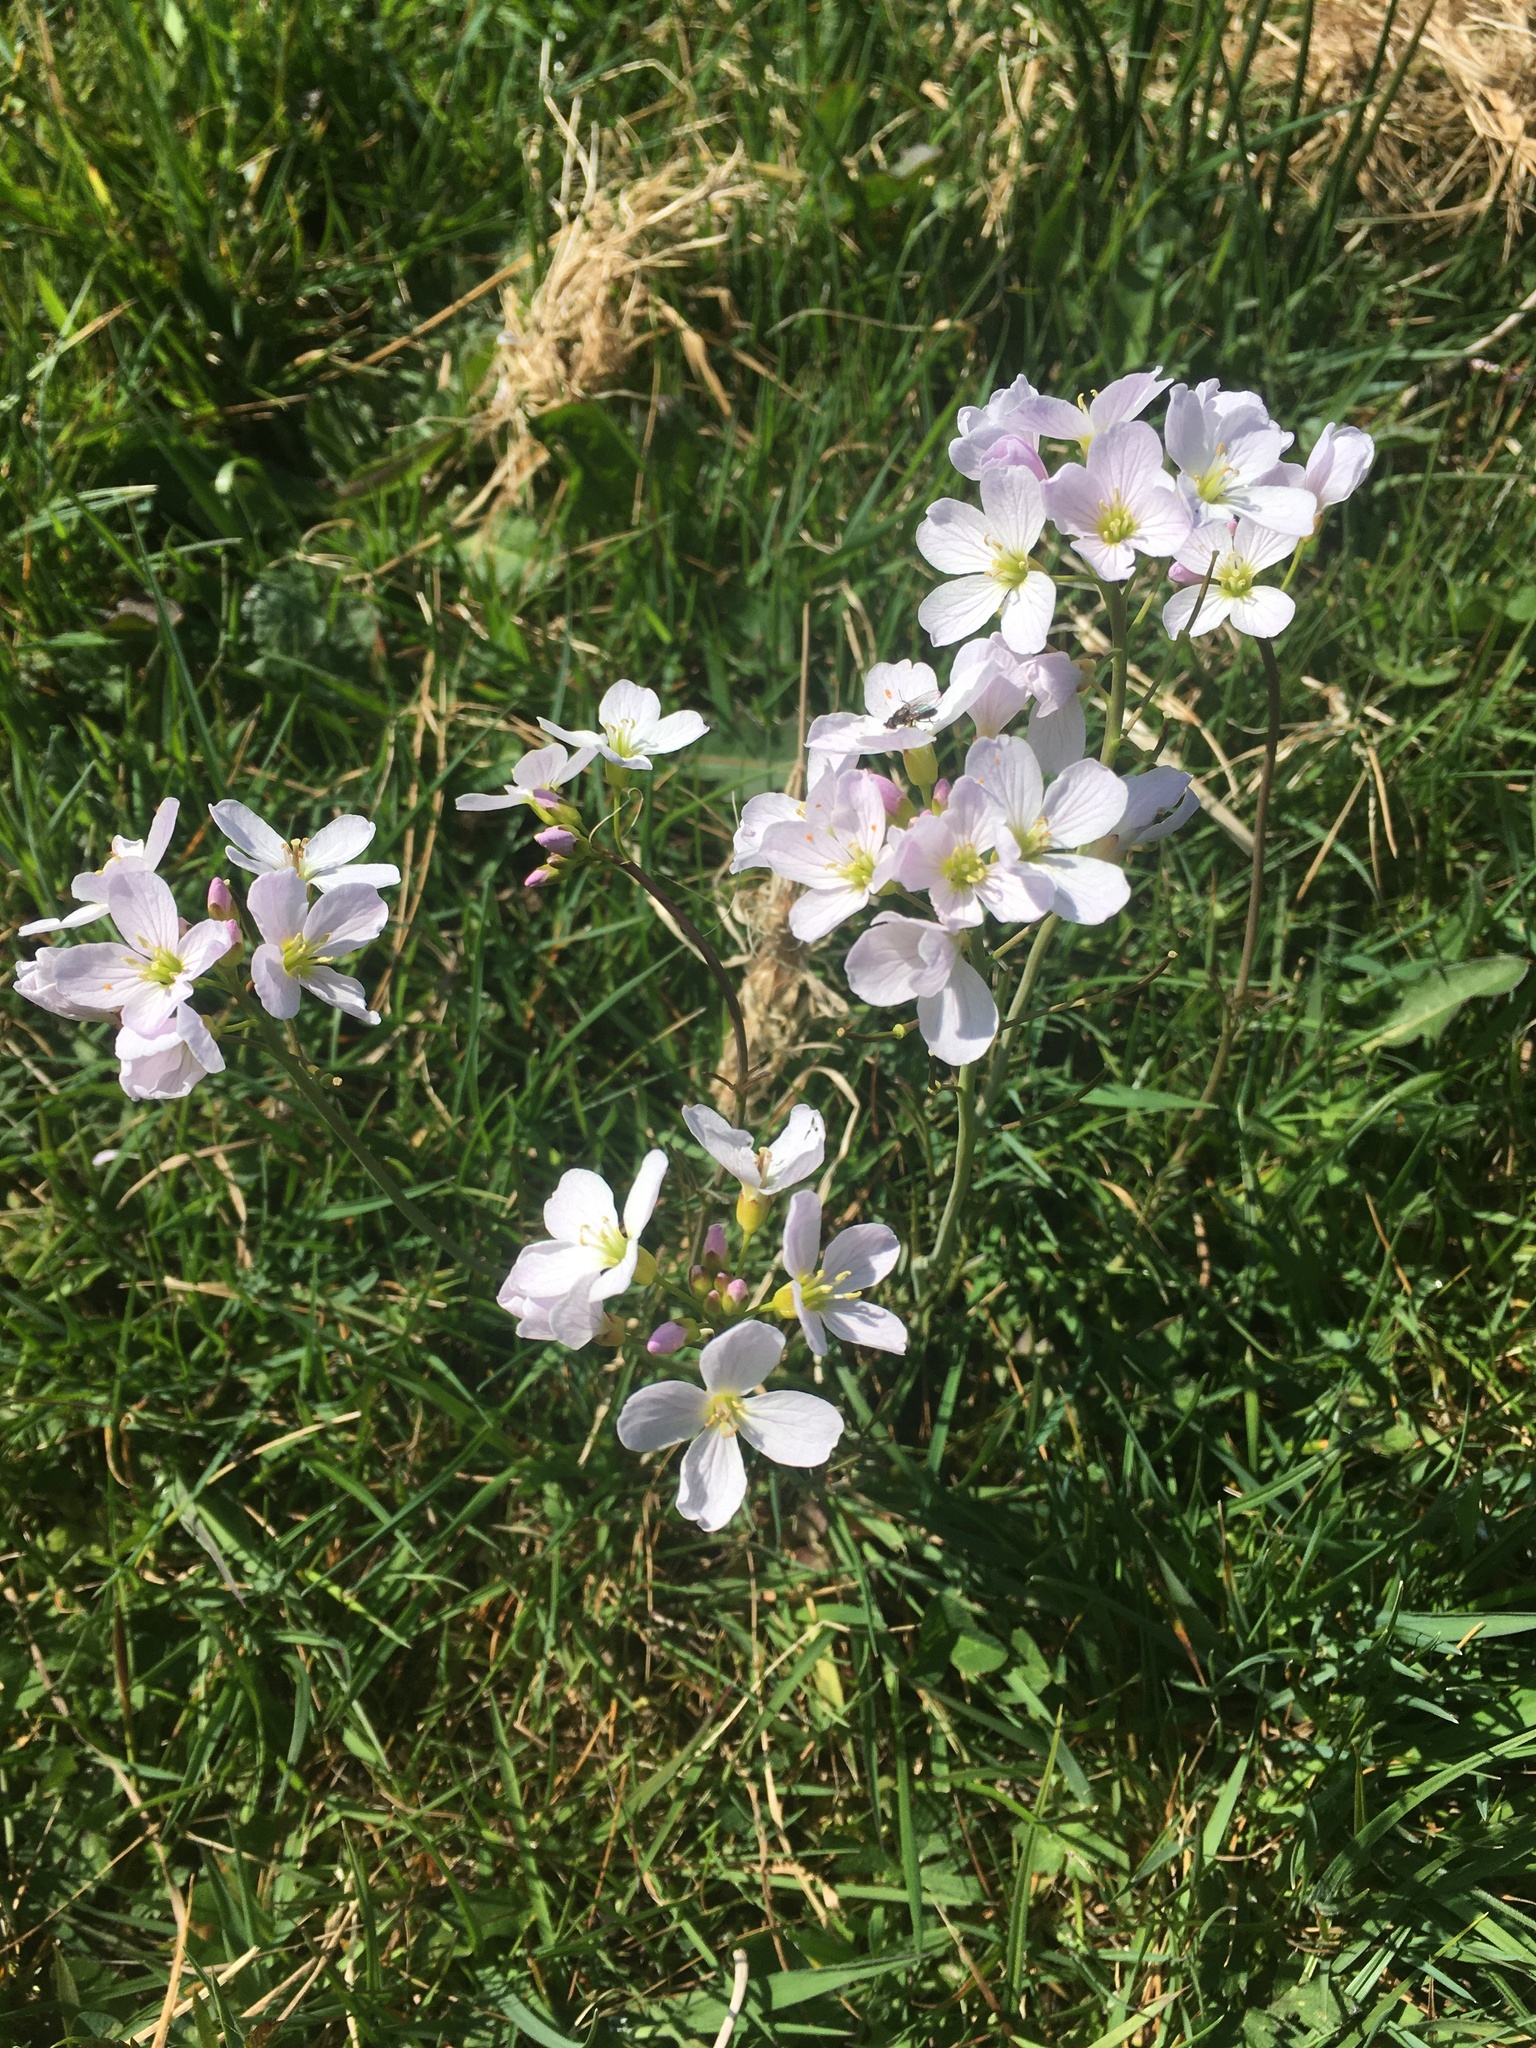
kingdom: Plantae
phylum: Tracheophyta
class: Magnoliopsida
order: Brassicales
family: Brassicaceae
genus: Cardamine
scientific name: Cardamine pratensis
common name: Cuckoo flower
